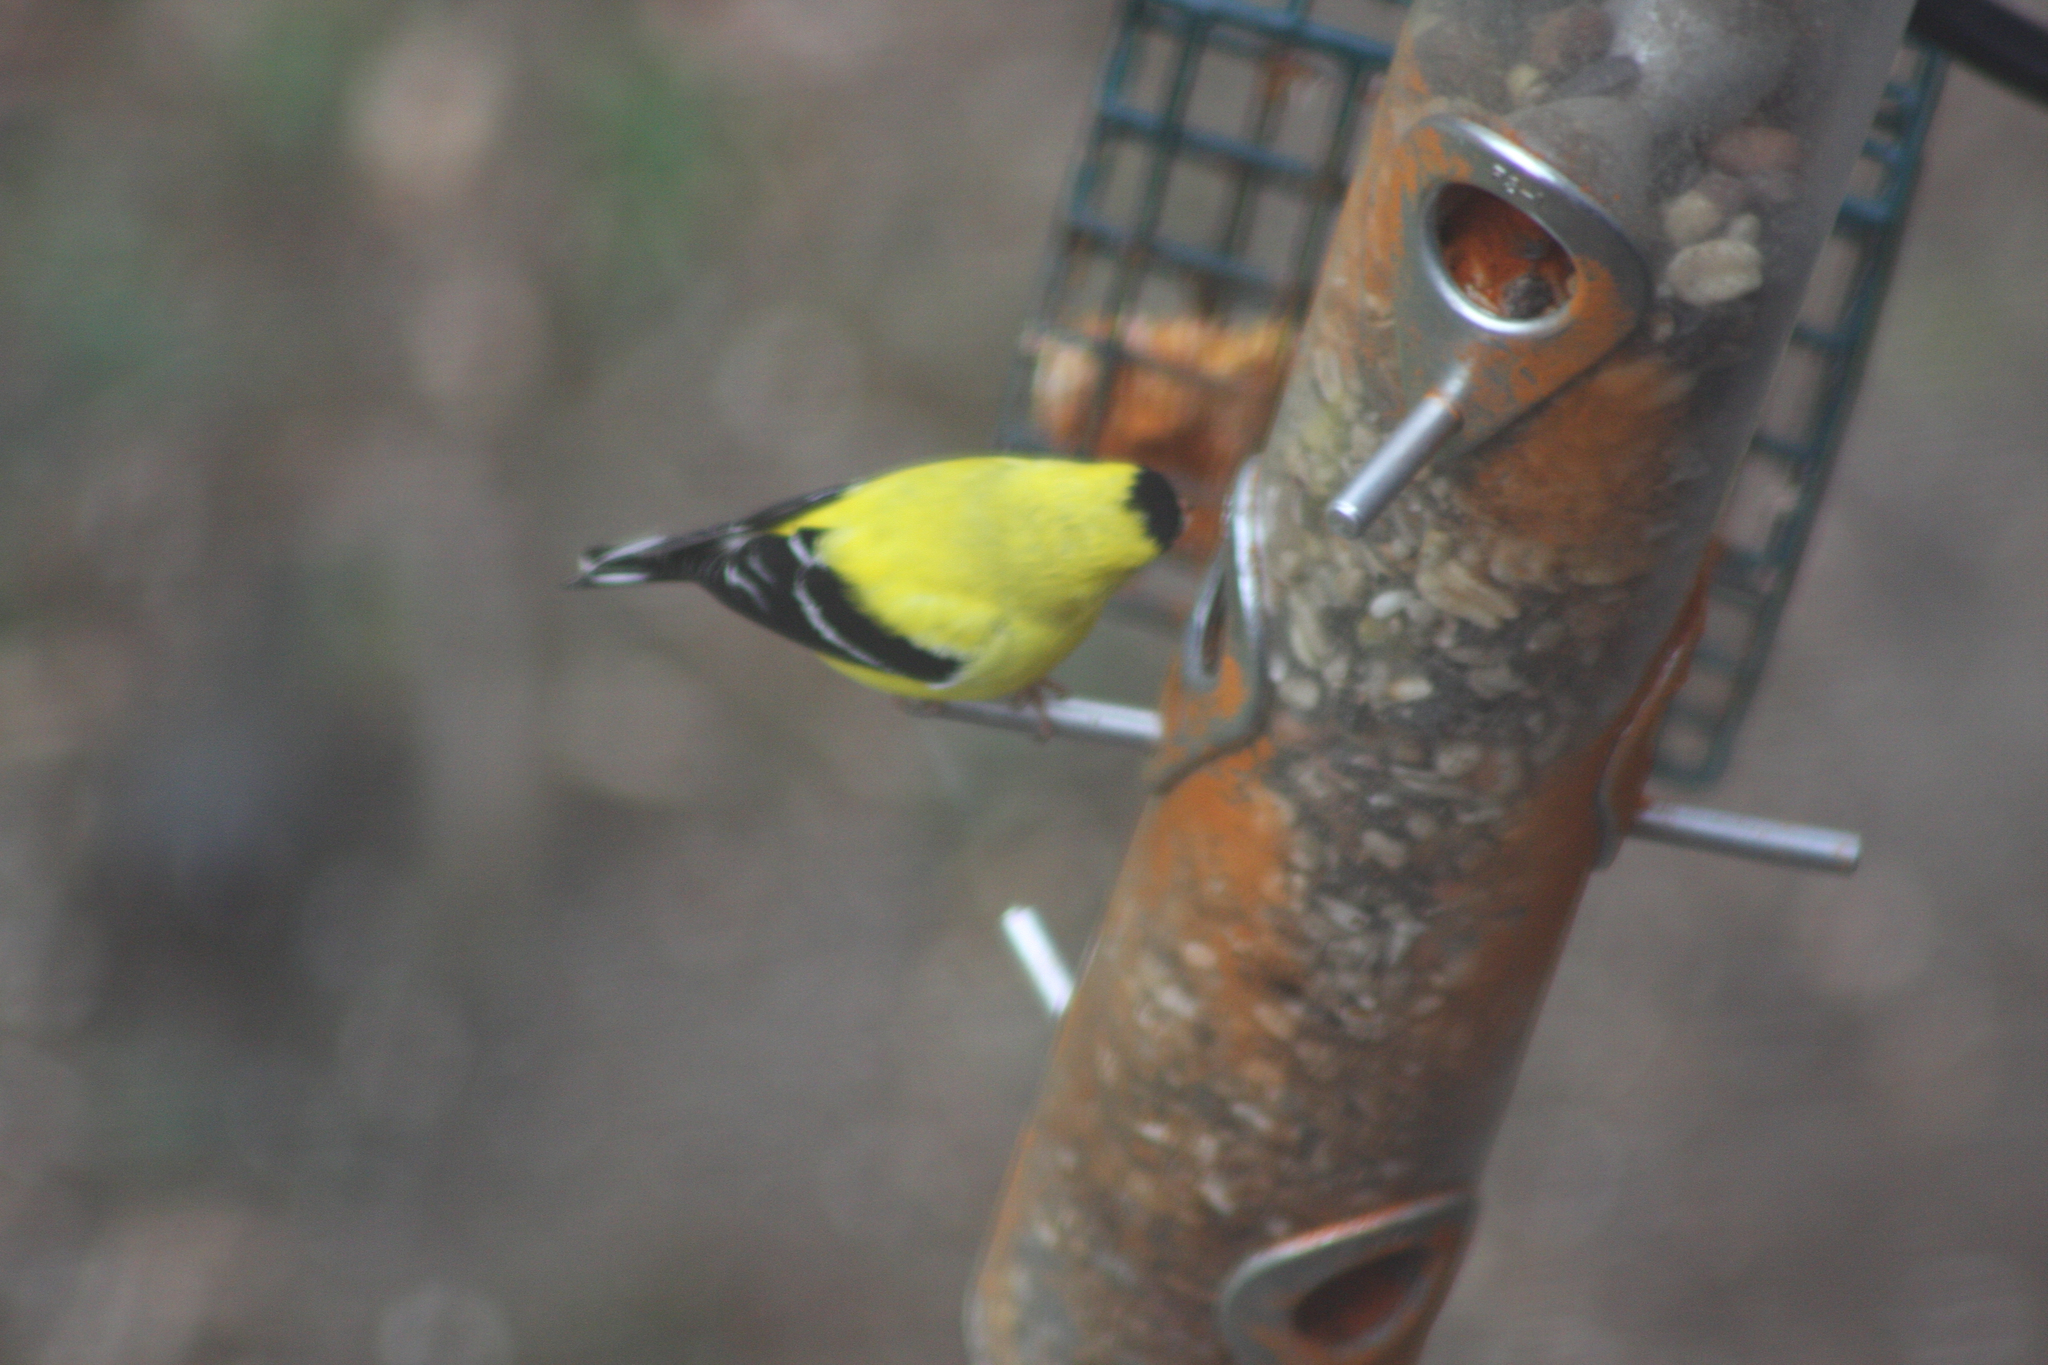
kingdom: Animalia
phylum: Chordata
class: Aves
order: Passeriformes
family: Fringillidae
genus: Spinus
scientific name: Spinus tristis
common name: American goldfinch
